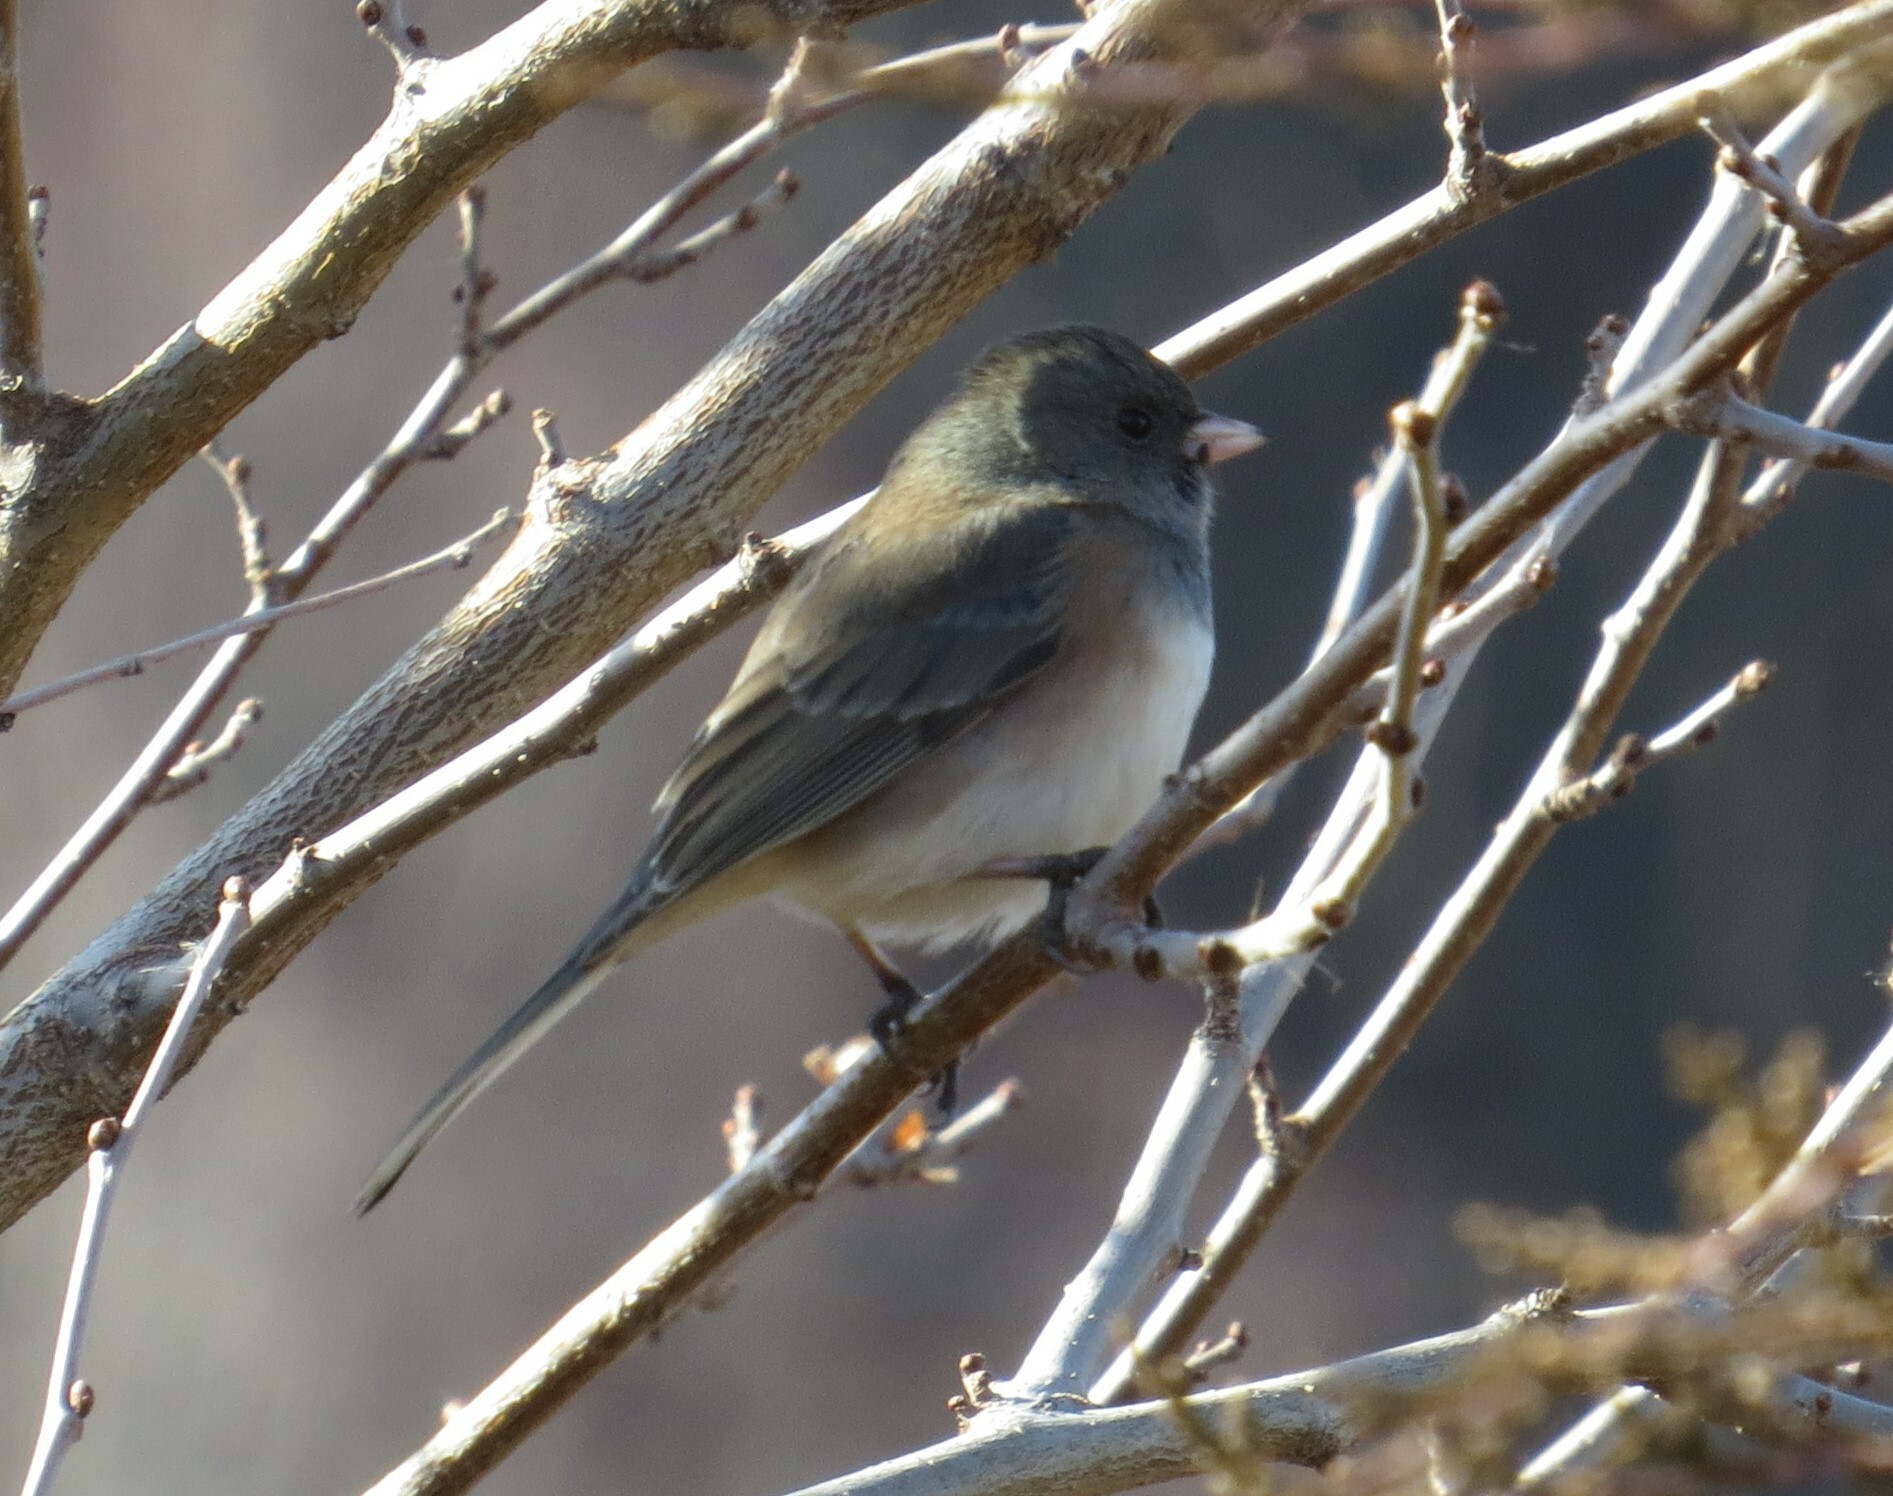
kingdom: Animalia
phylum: Chordata
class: Aves
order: Passeriformes
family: Passerellidae
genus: Junco
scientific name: Junco hyemalis
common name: Dark-eyed junco
